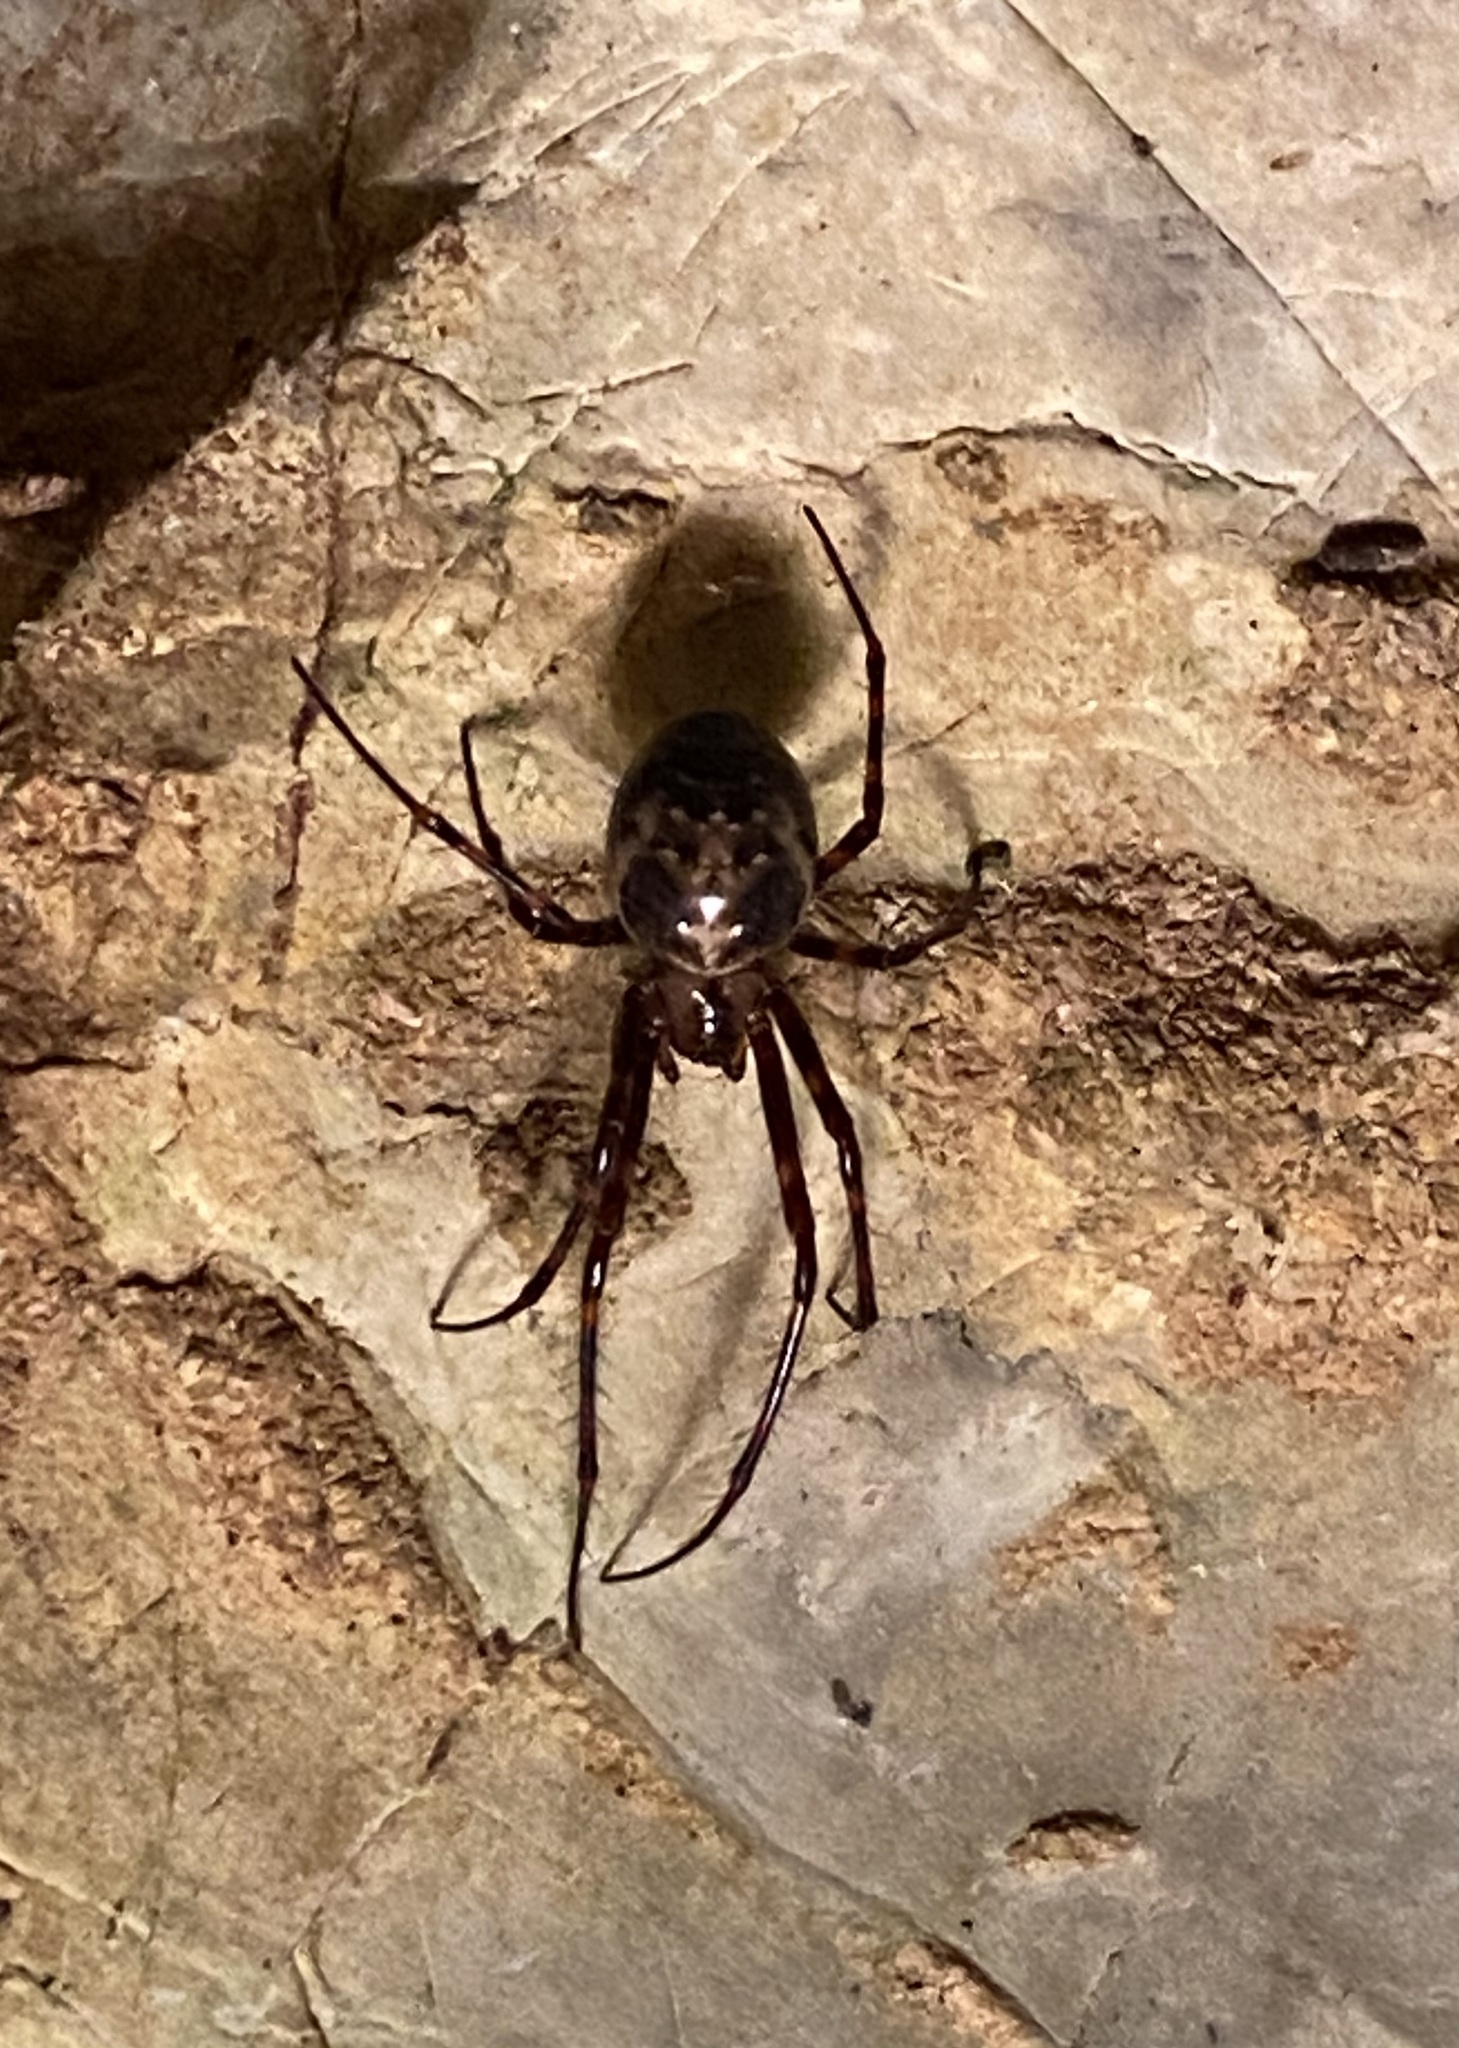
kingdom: Animalia
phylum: Arthropoda
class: Arachnida
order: Araneae
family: Tetragnathidae
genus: Meta
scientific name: Meta ovalis
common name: Eastern cave long-jawed spider
